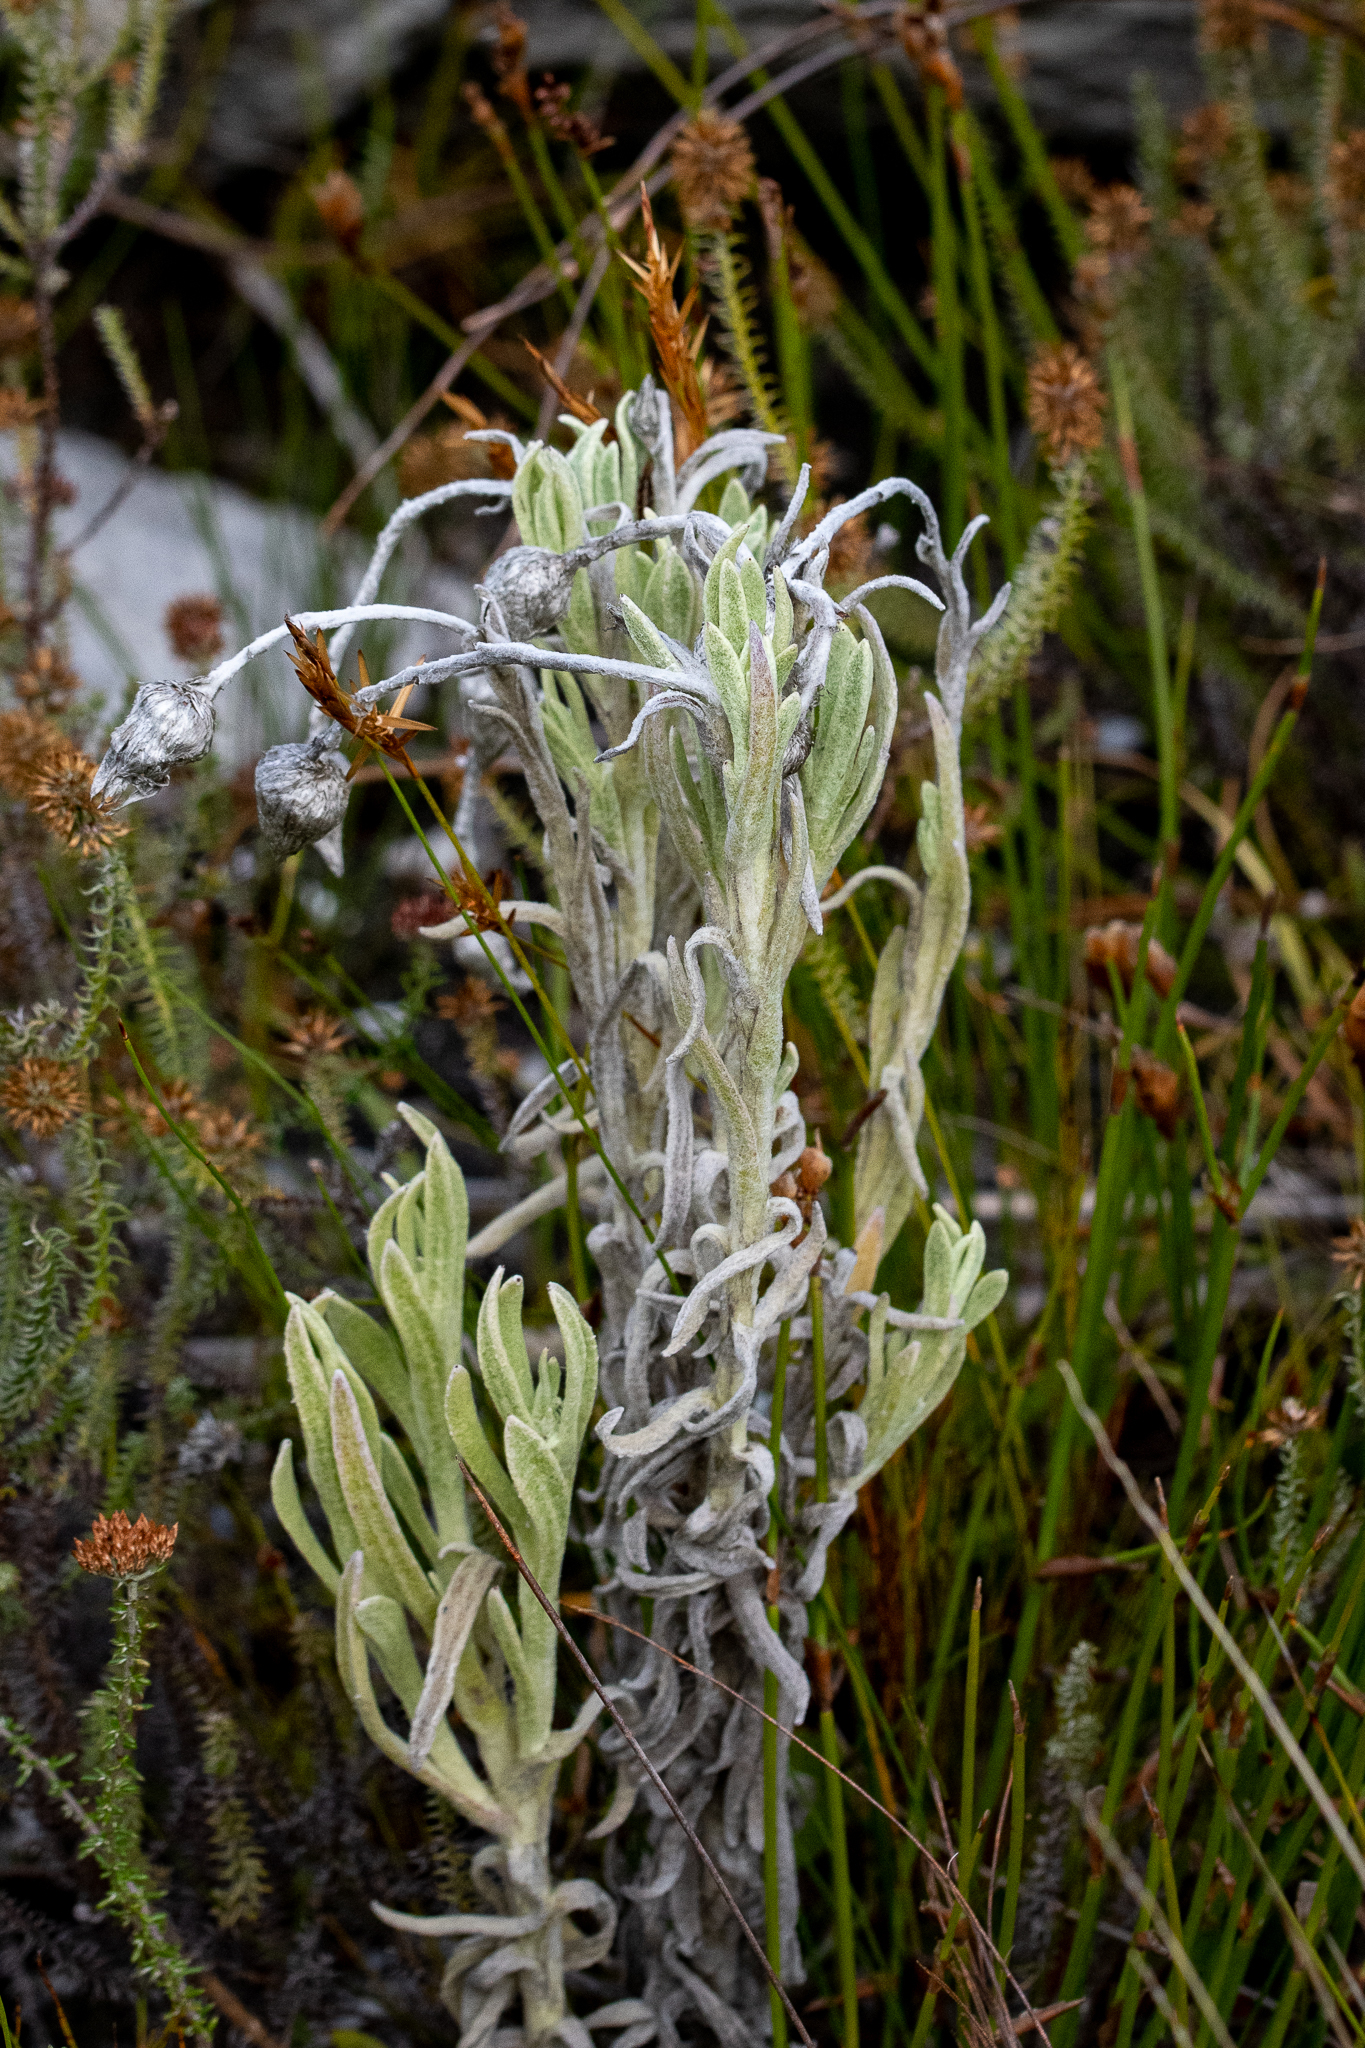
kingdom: Plantae
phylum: Tracheophyta
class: Magnoliopsida
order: Asterales
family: Asteraceae
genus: Syncarpha
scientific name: Syncarpha vestita
